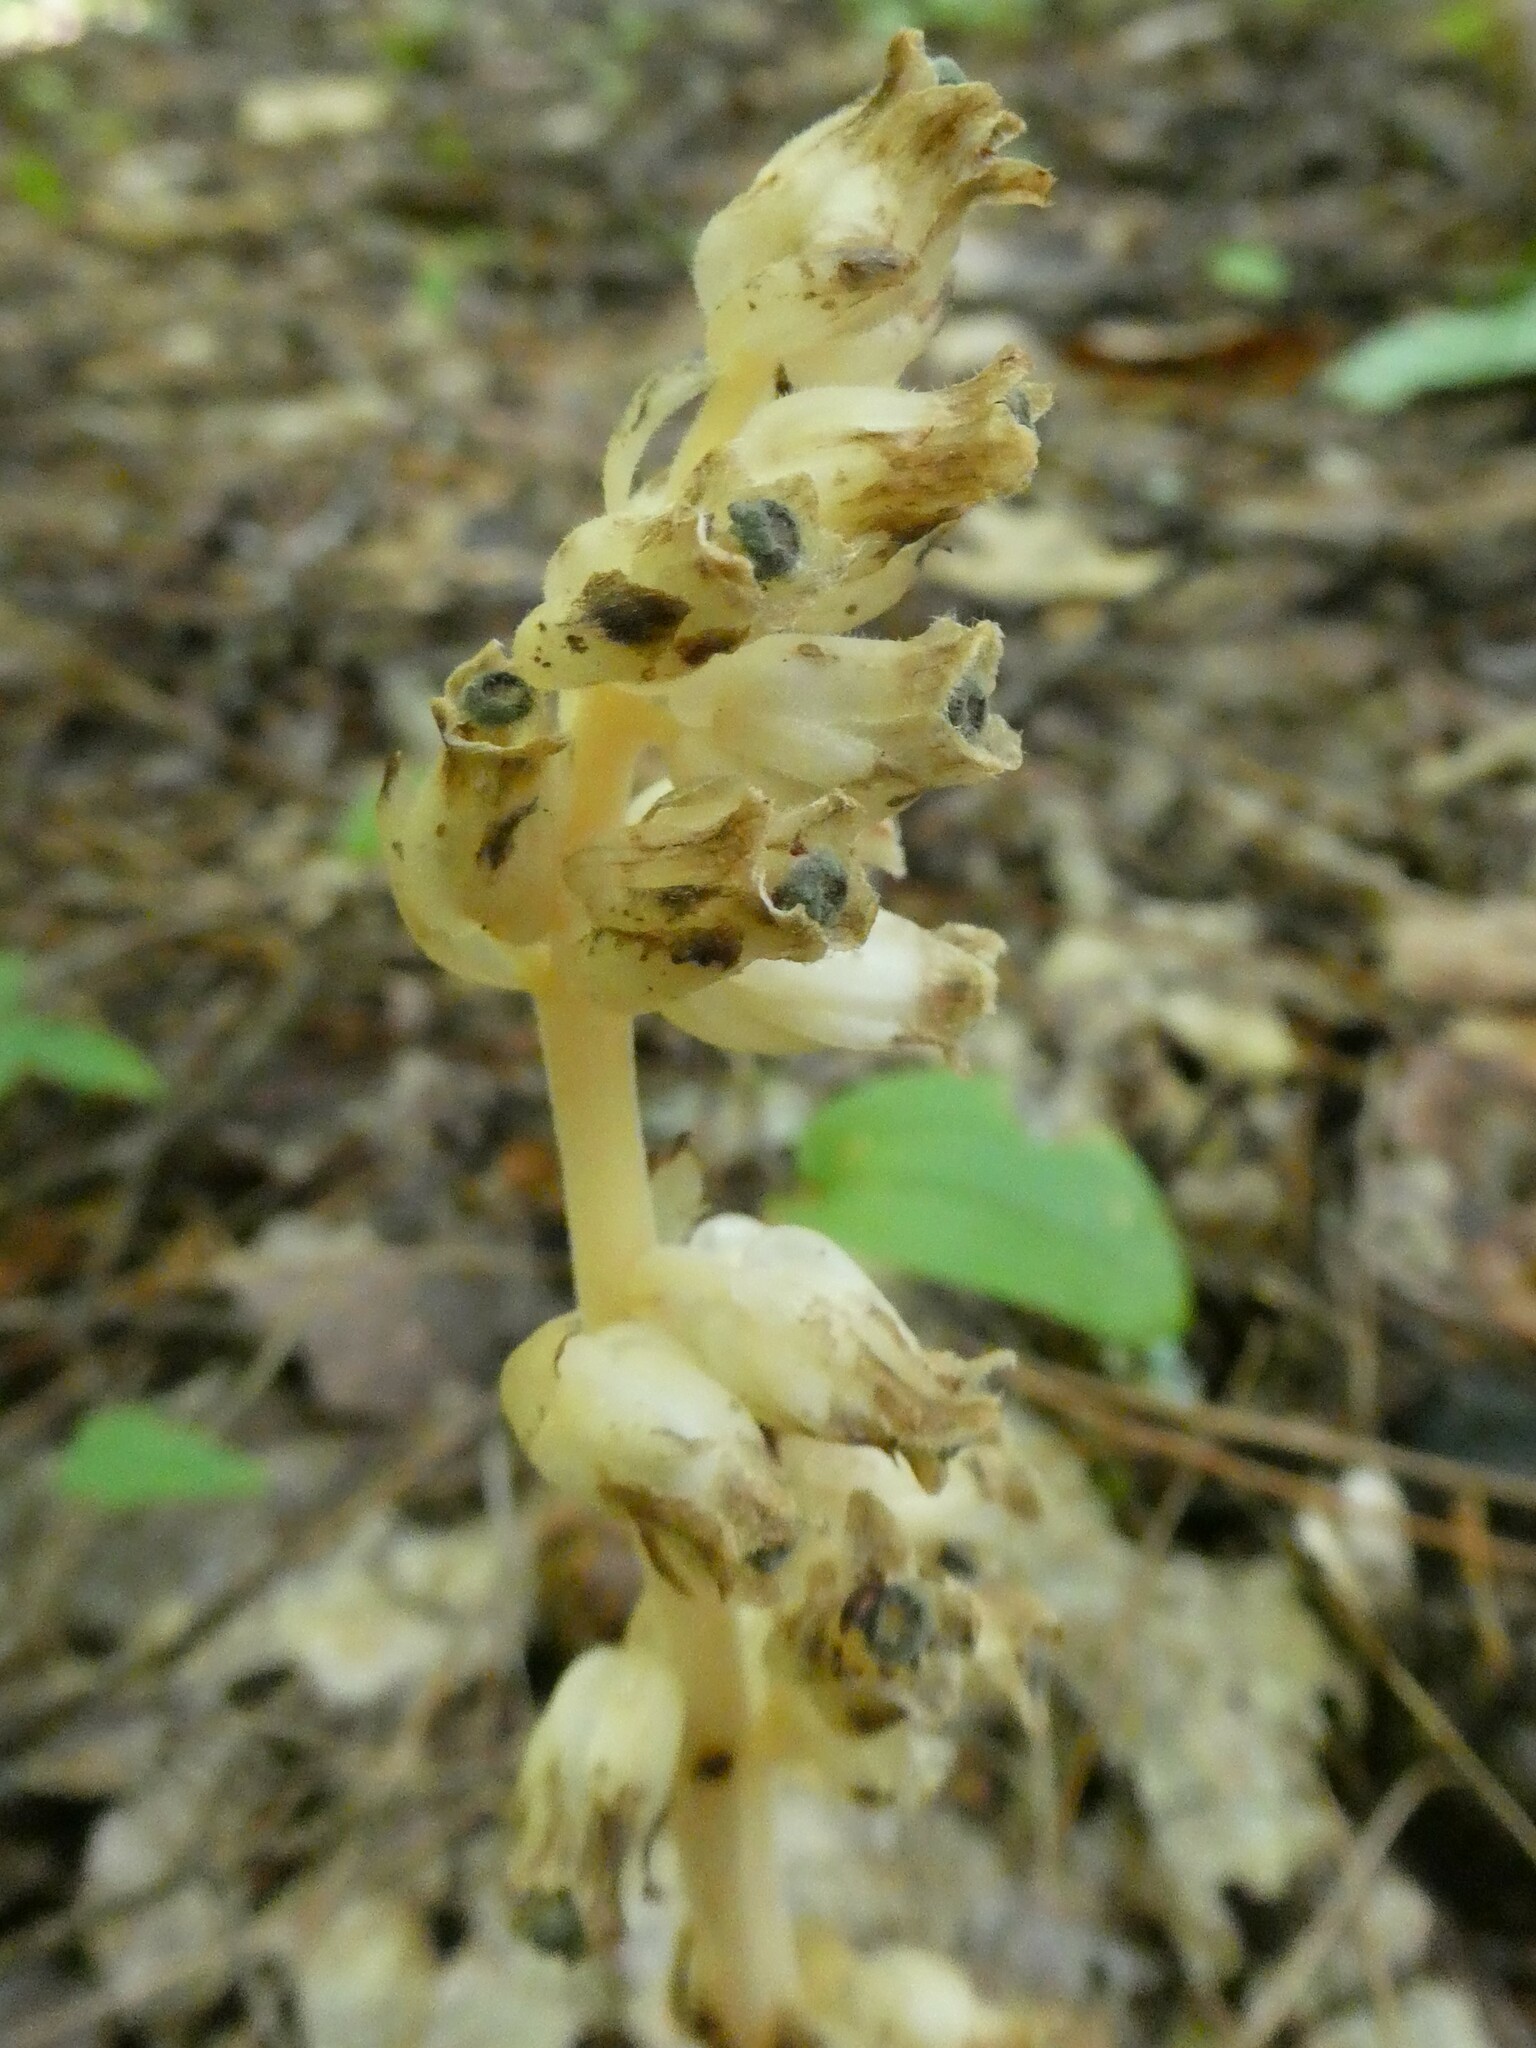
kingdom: Plantae
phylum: Tracheophyta
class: Magnoliopsida
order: Ericales
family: Ericaceae
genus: Hypopitys
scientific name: Hypopitys monotropa
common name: Yellow bird's-nest
